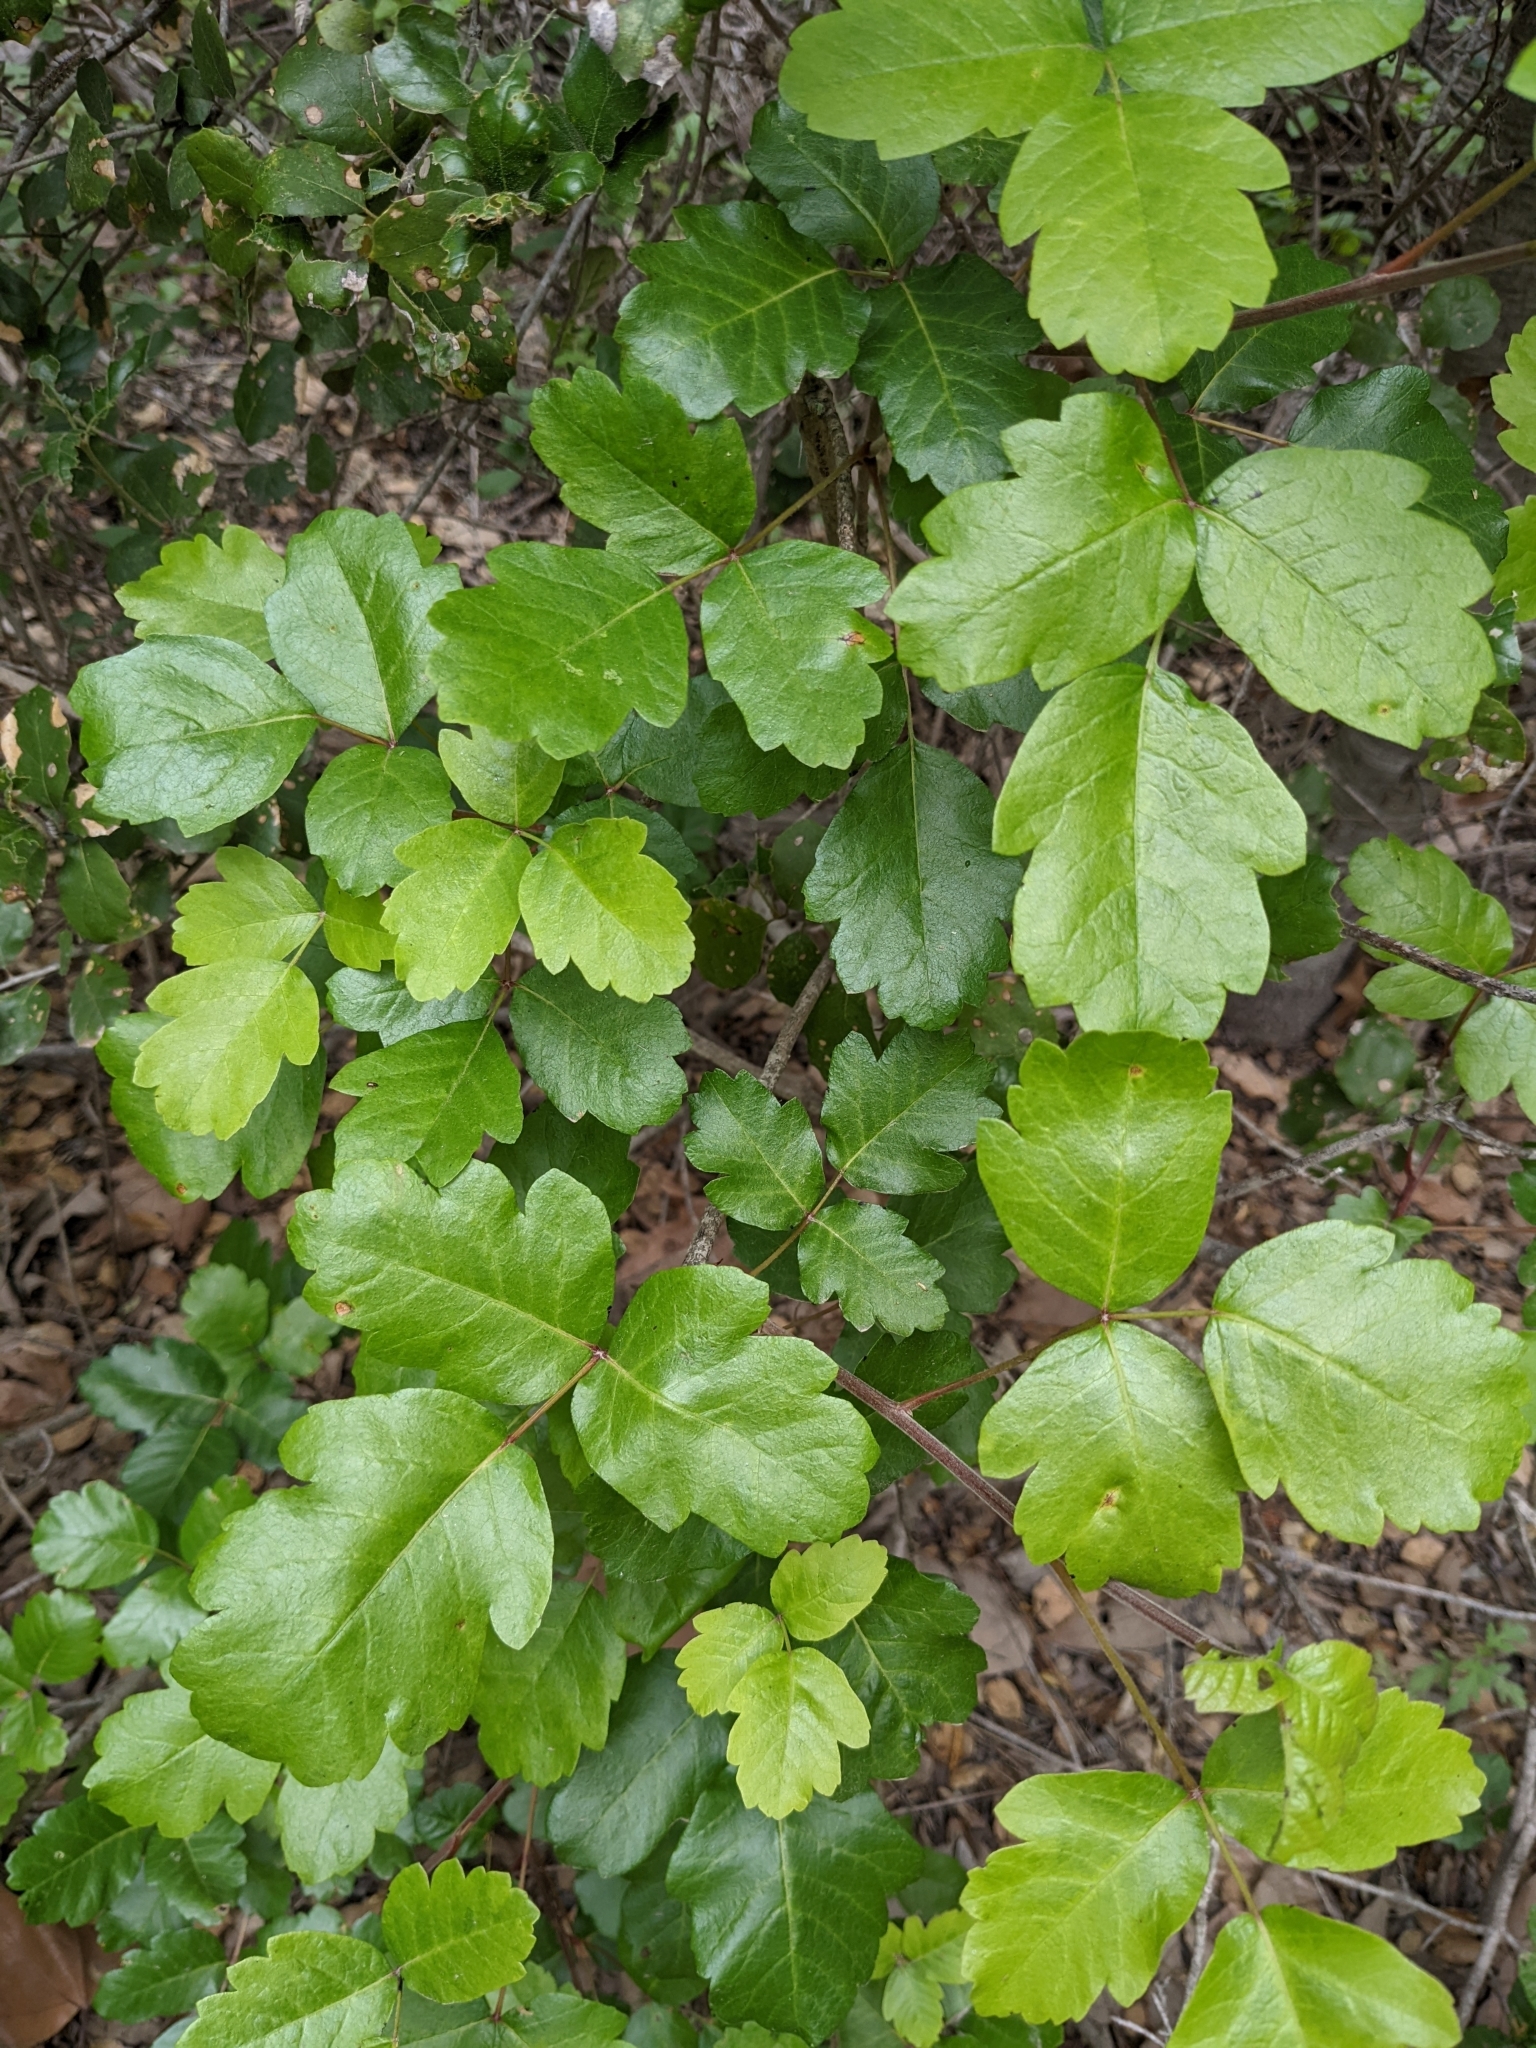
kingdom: Plantae
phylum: Tracheophyta
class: Magnoliopsida
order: Sapindales
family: Anacardiaceae
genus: Toxicodendron
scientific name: Toxicodendron diversilobum
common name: Pacific poison-oak
